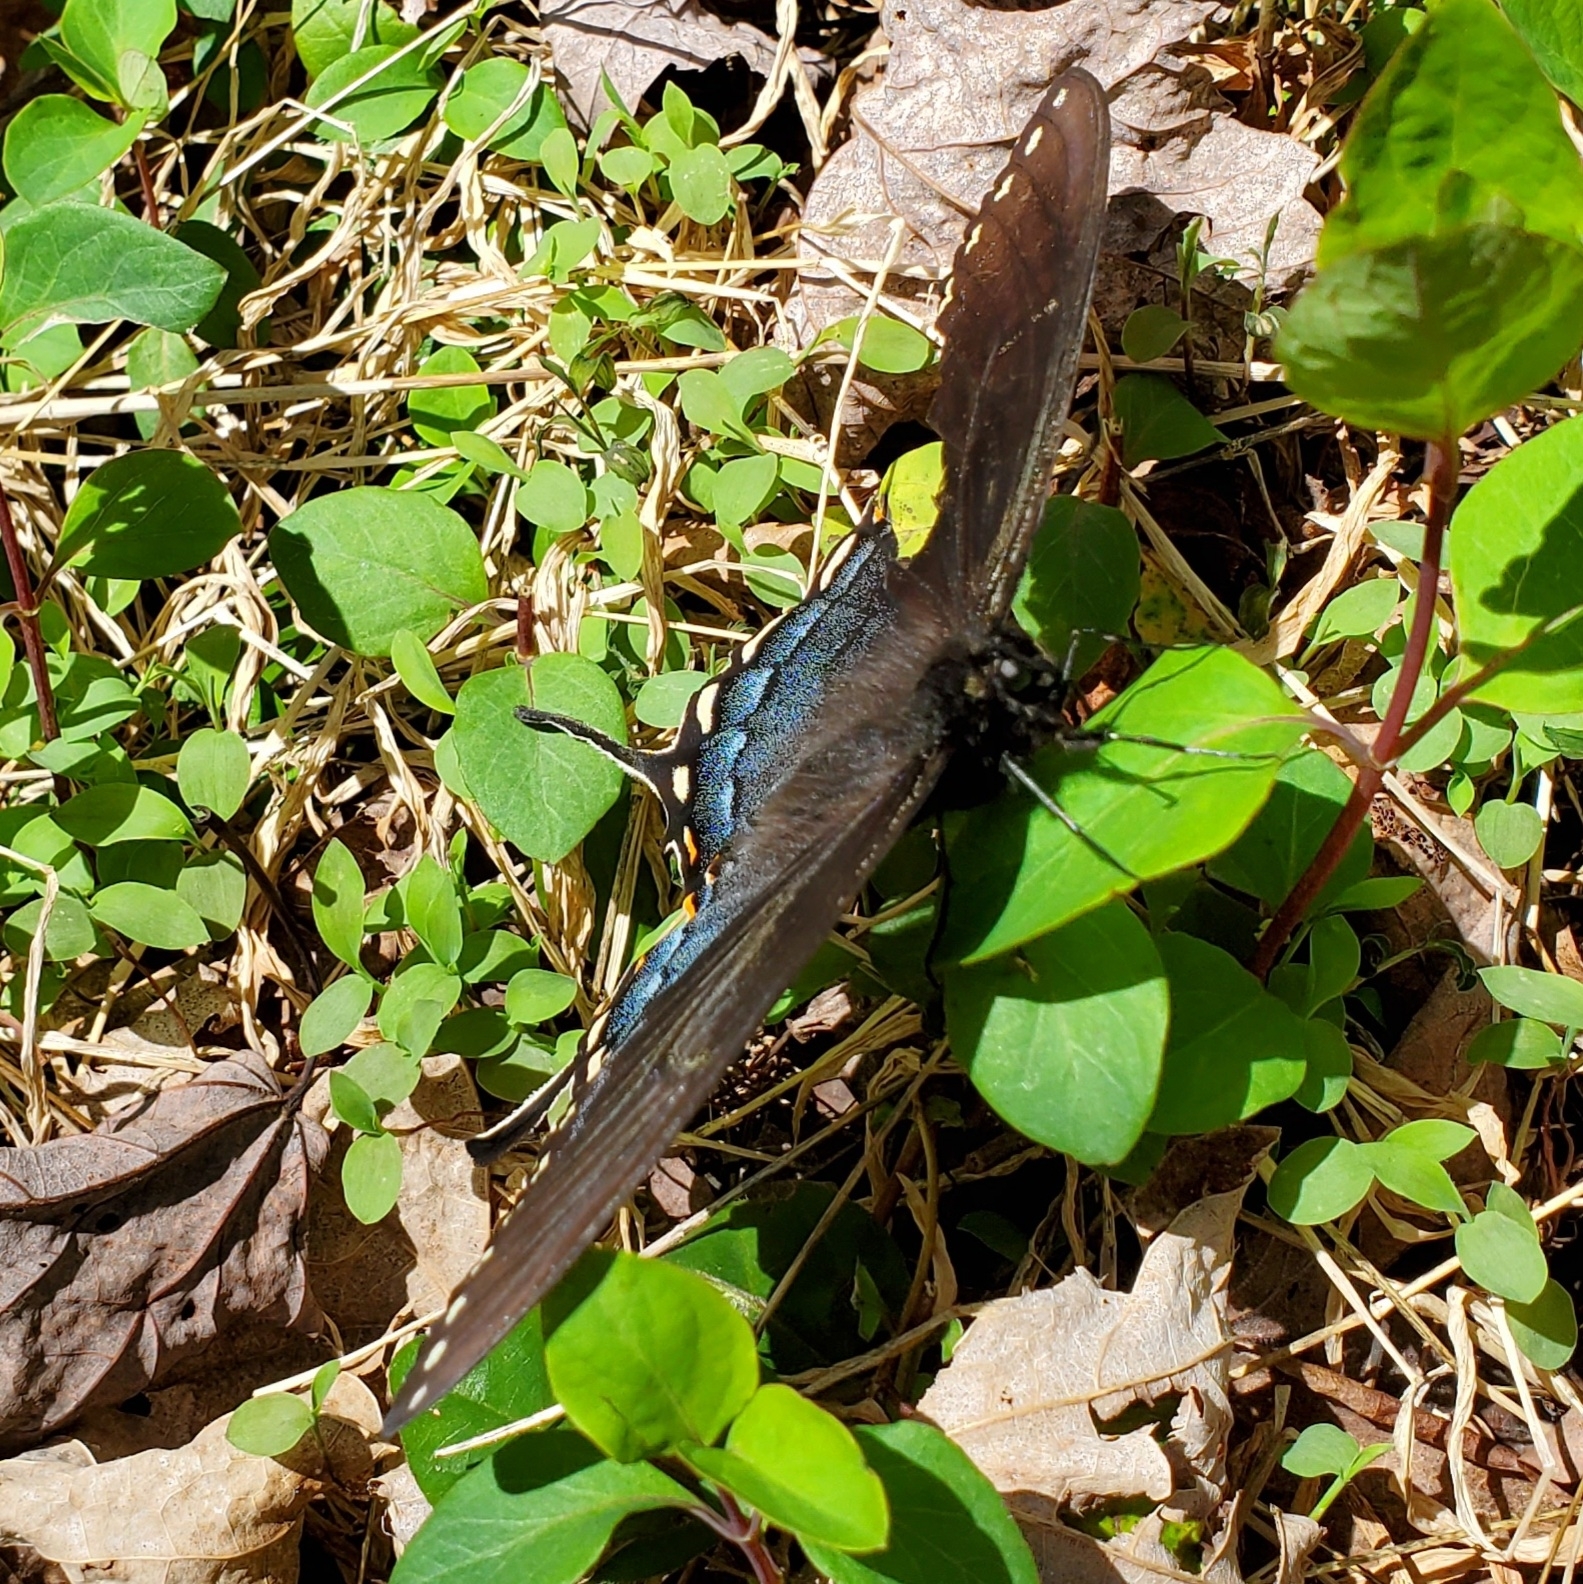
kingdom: Animalia
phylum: Arthropoda
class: Insecta
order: Lepidoptera
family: Papilionidae
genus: Papilio
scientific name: Papilio glaucus
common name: Tiger swallowtail
